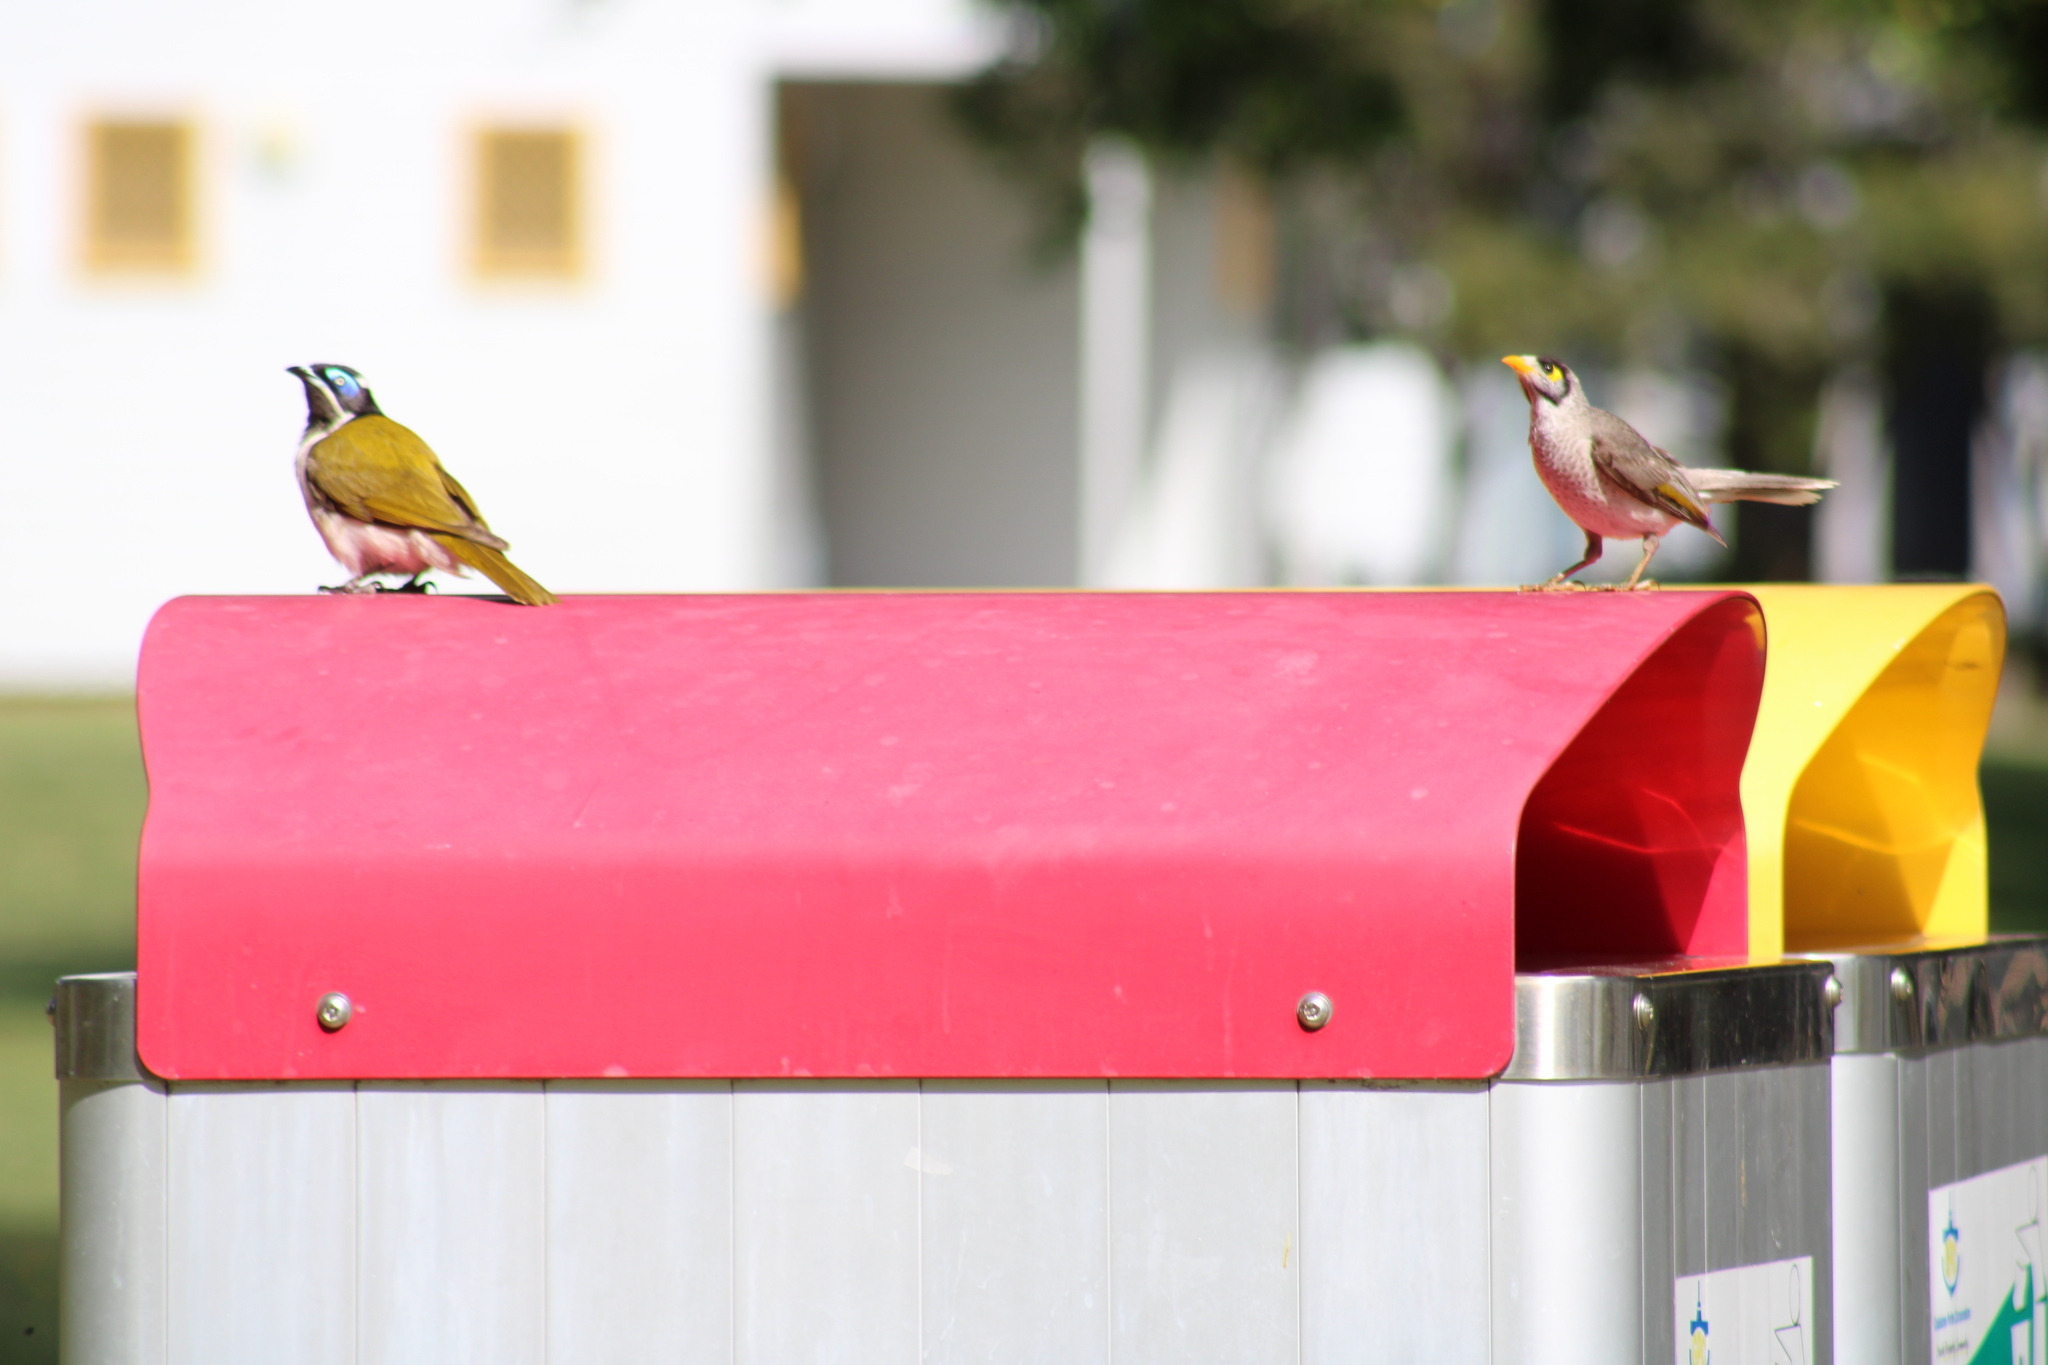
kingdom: Animalia
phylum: Chordata
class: Aves
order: Passeriformes
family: Meliphagidae
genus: Manorina
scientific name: Manorina melanocephala
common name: Noisy miner
